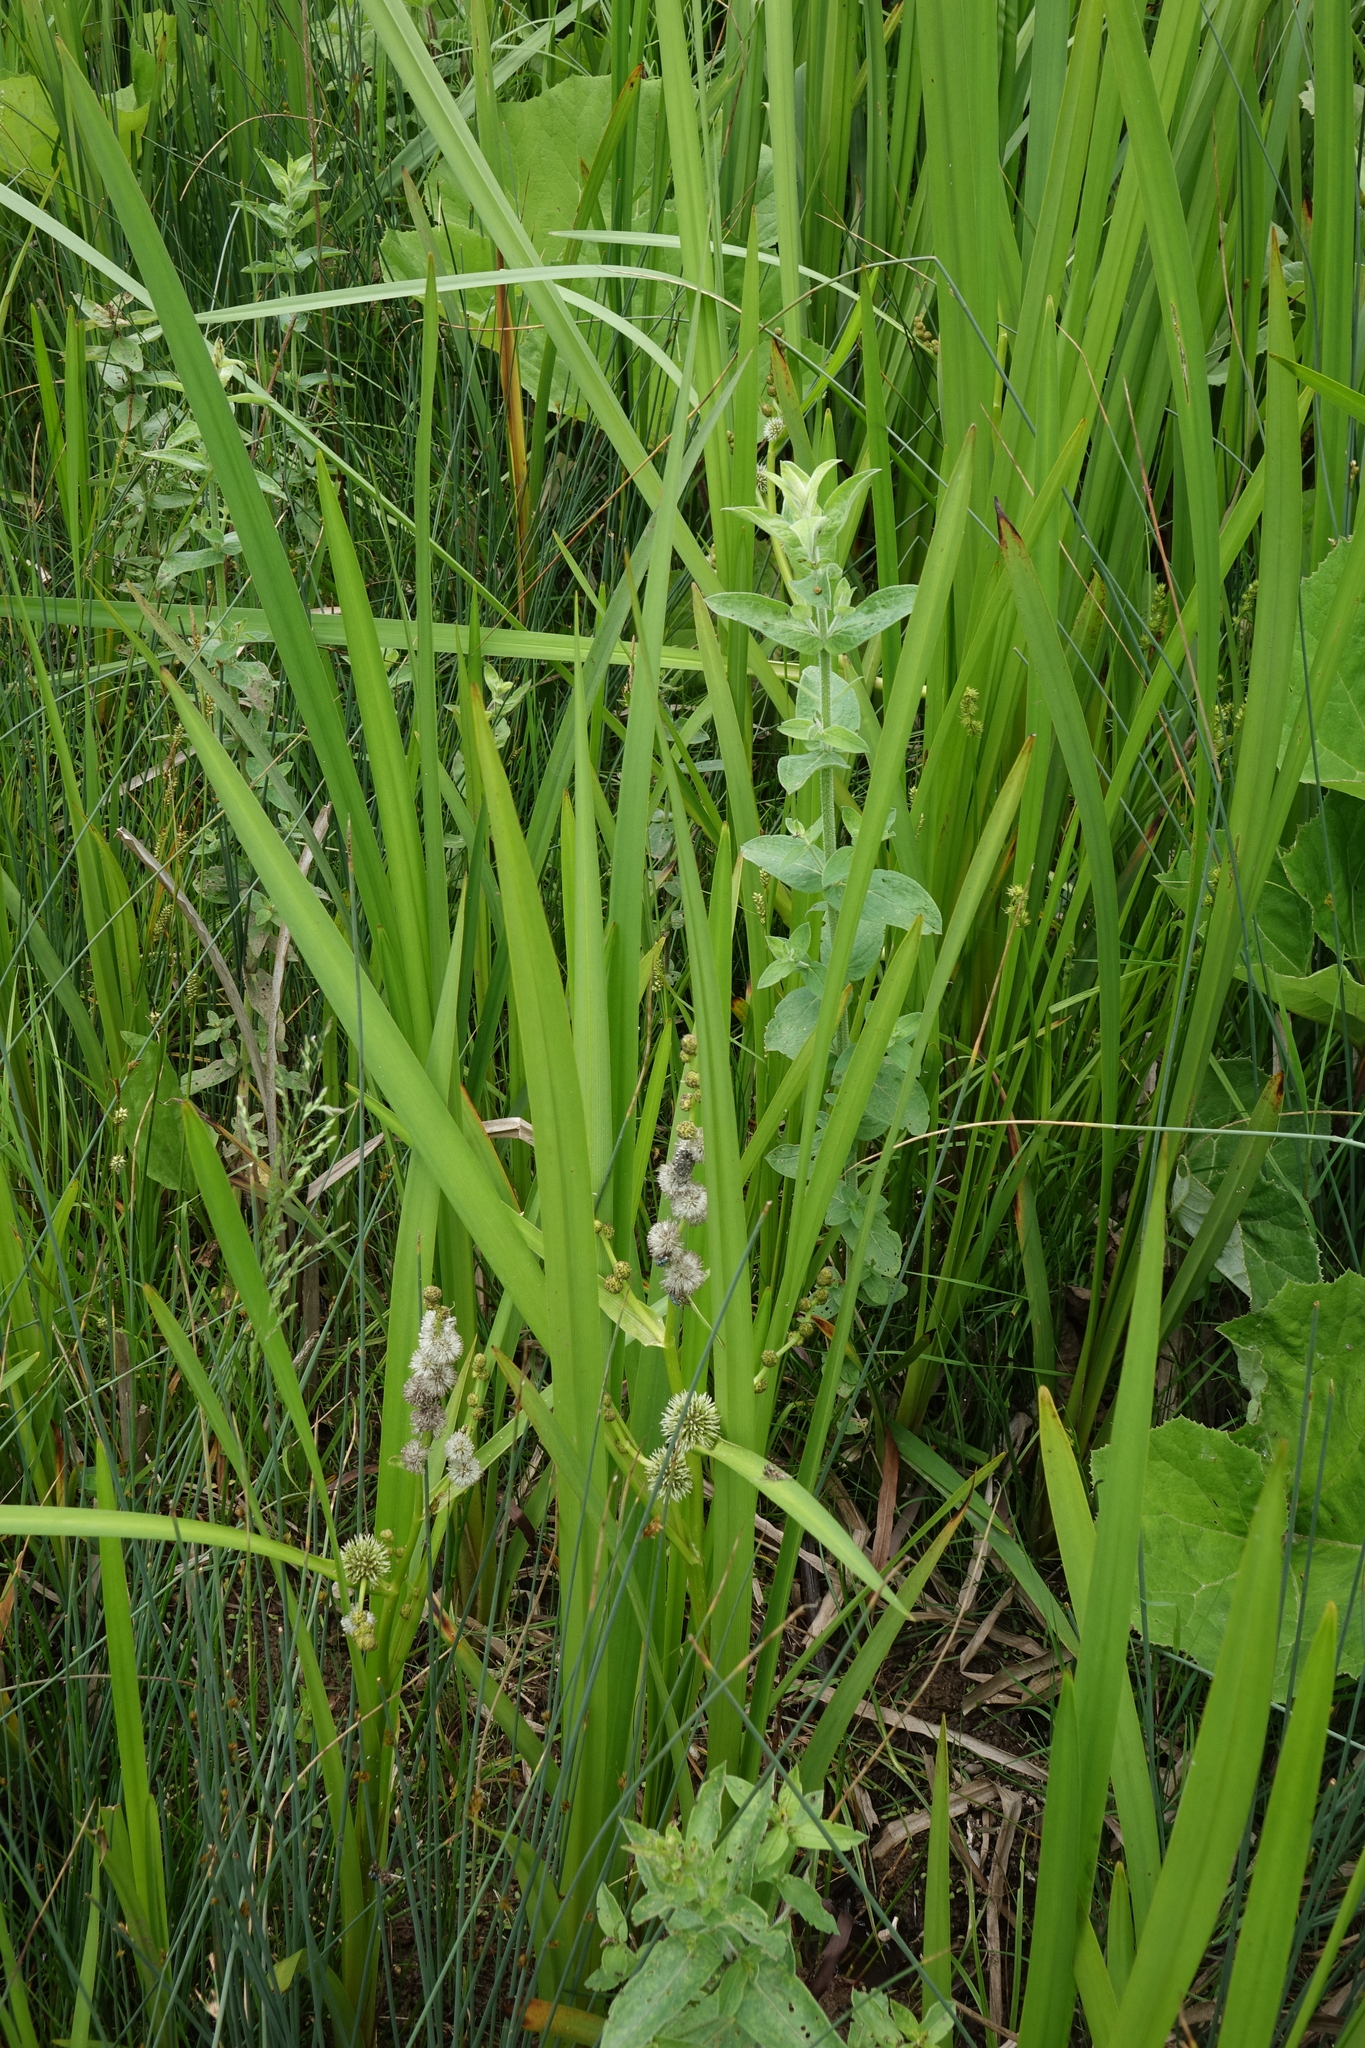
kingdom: Plantae
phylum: Tracheophyta
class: Liliopsida
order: Poales
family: Typhaceae
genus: Sparganium
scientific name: Sparganium erectum
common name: Branched bur-reed
